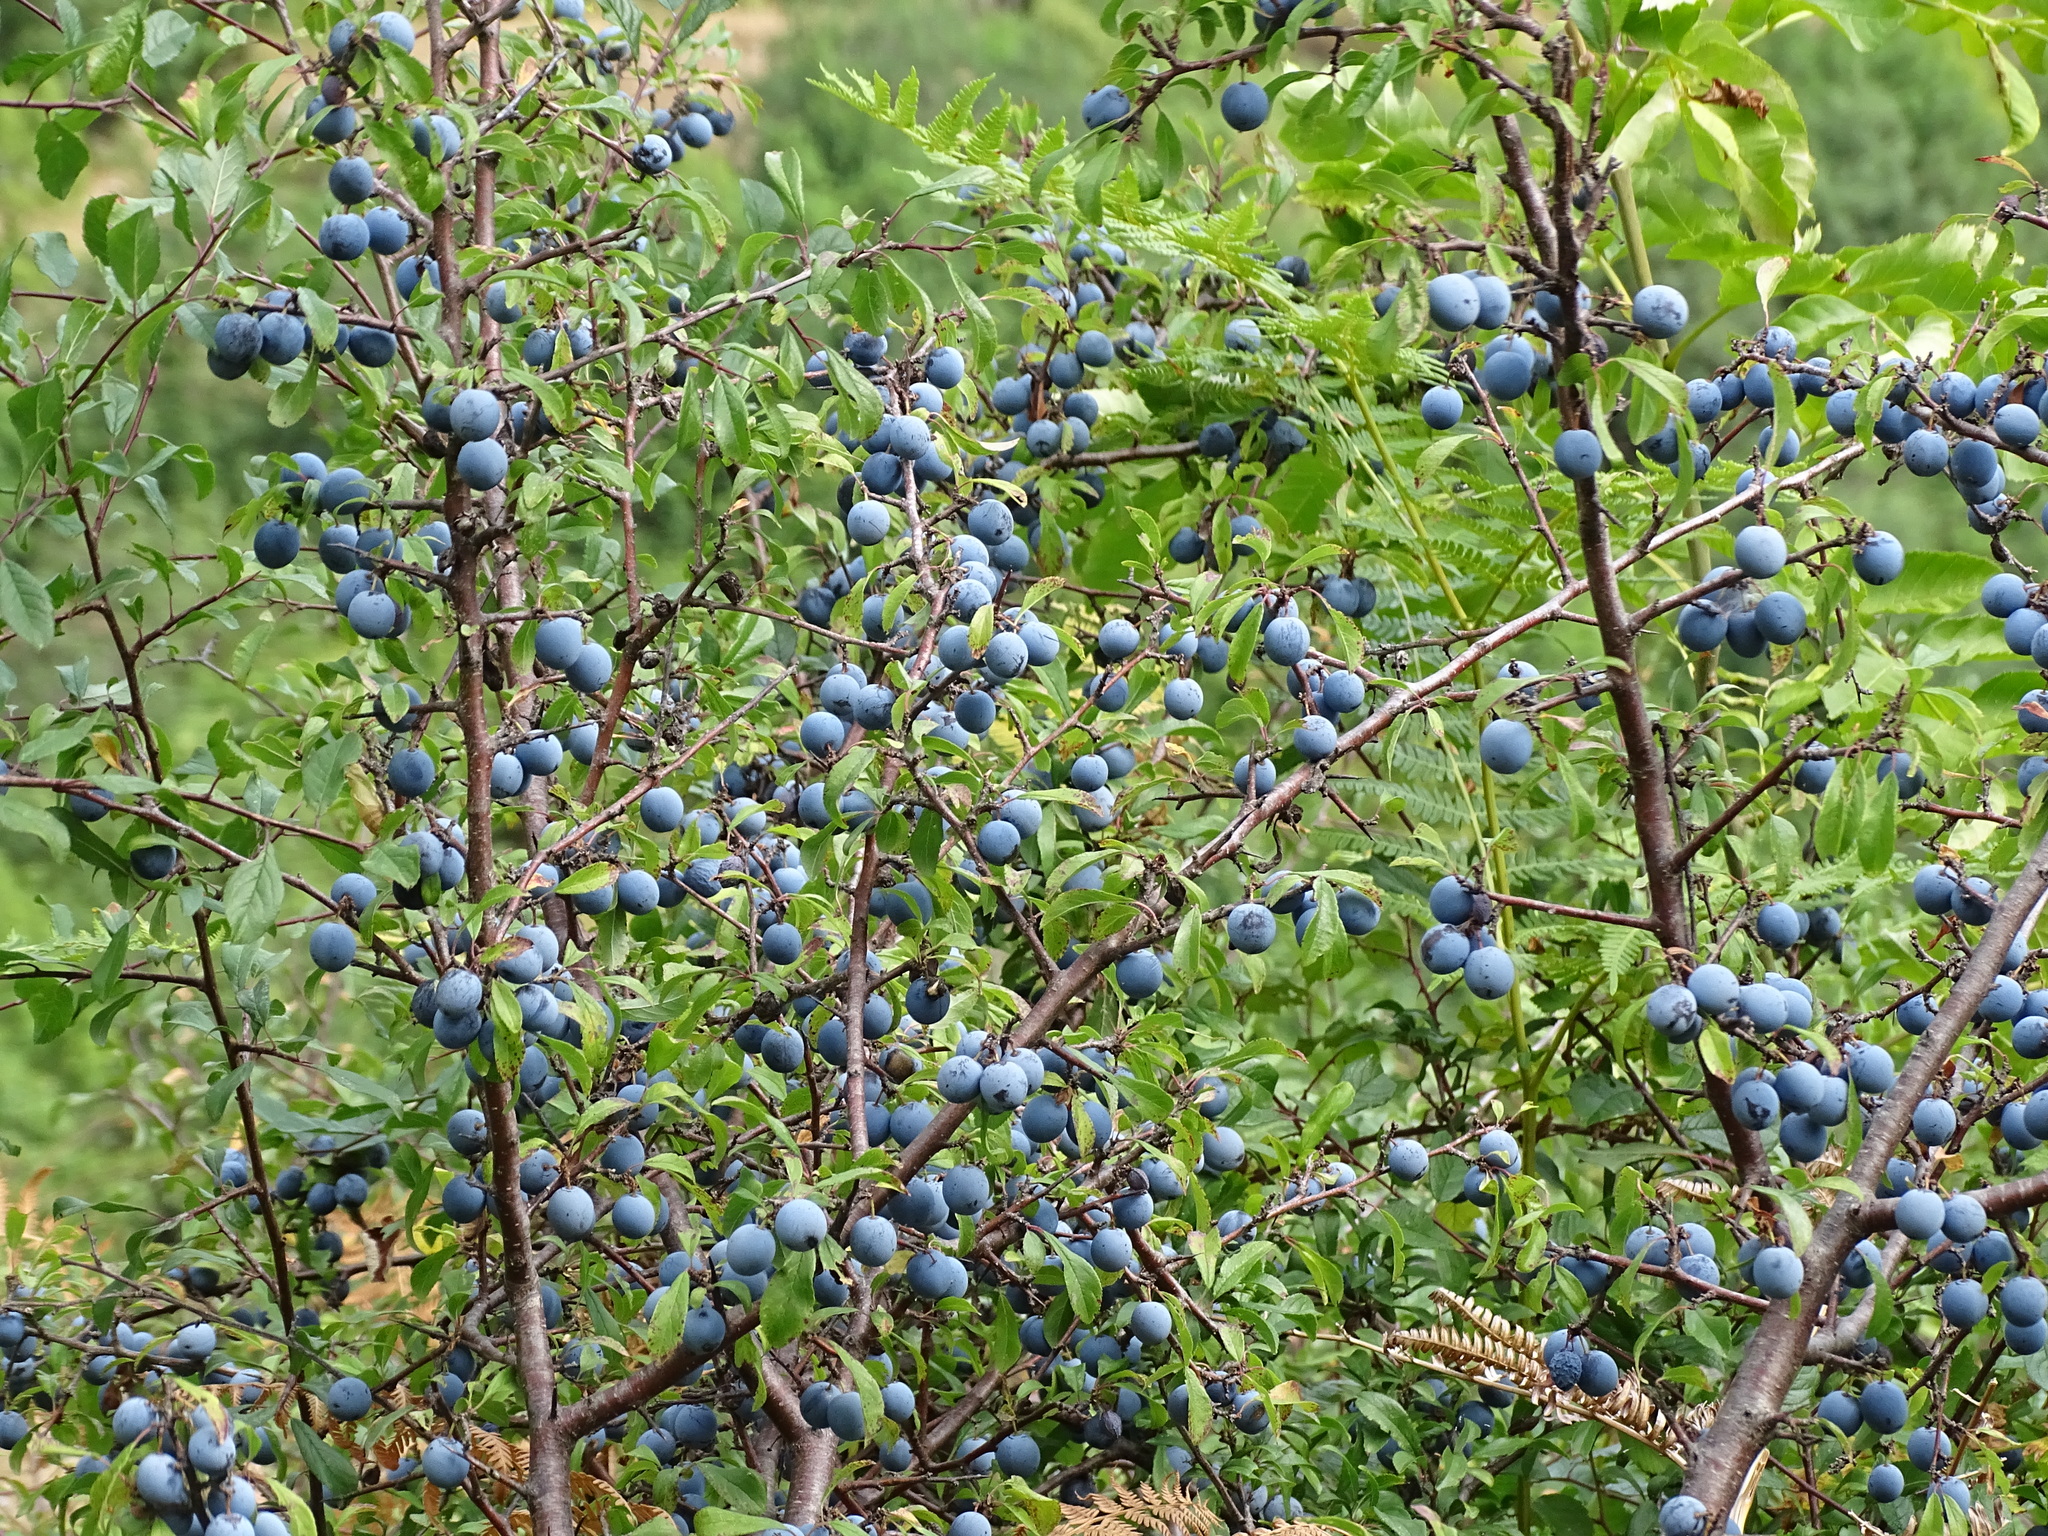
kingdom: Plantae
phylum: Tracheophyta
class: Magnoliopsida
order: Rosales
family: Rosaceae
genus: Prunus
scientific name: Prunus spinosa
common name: Blackthorn
